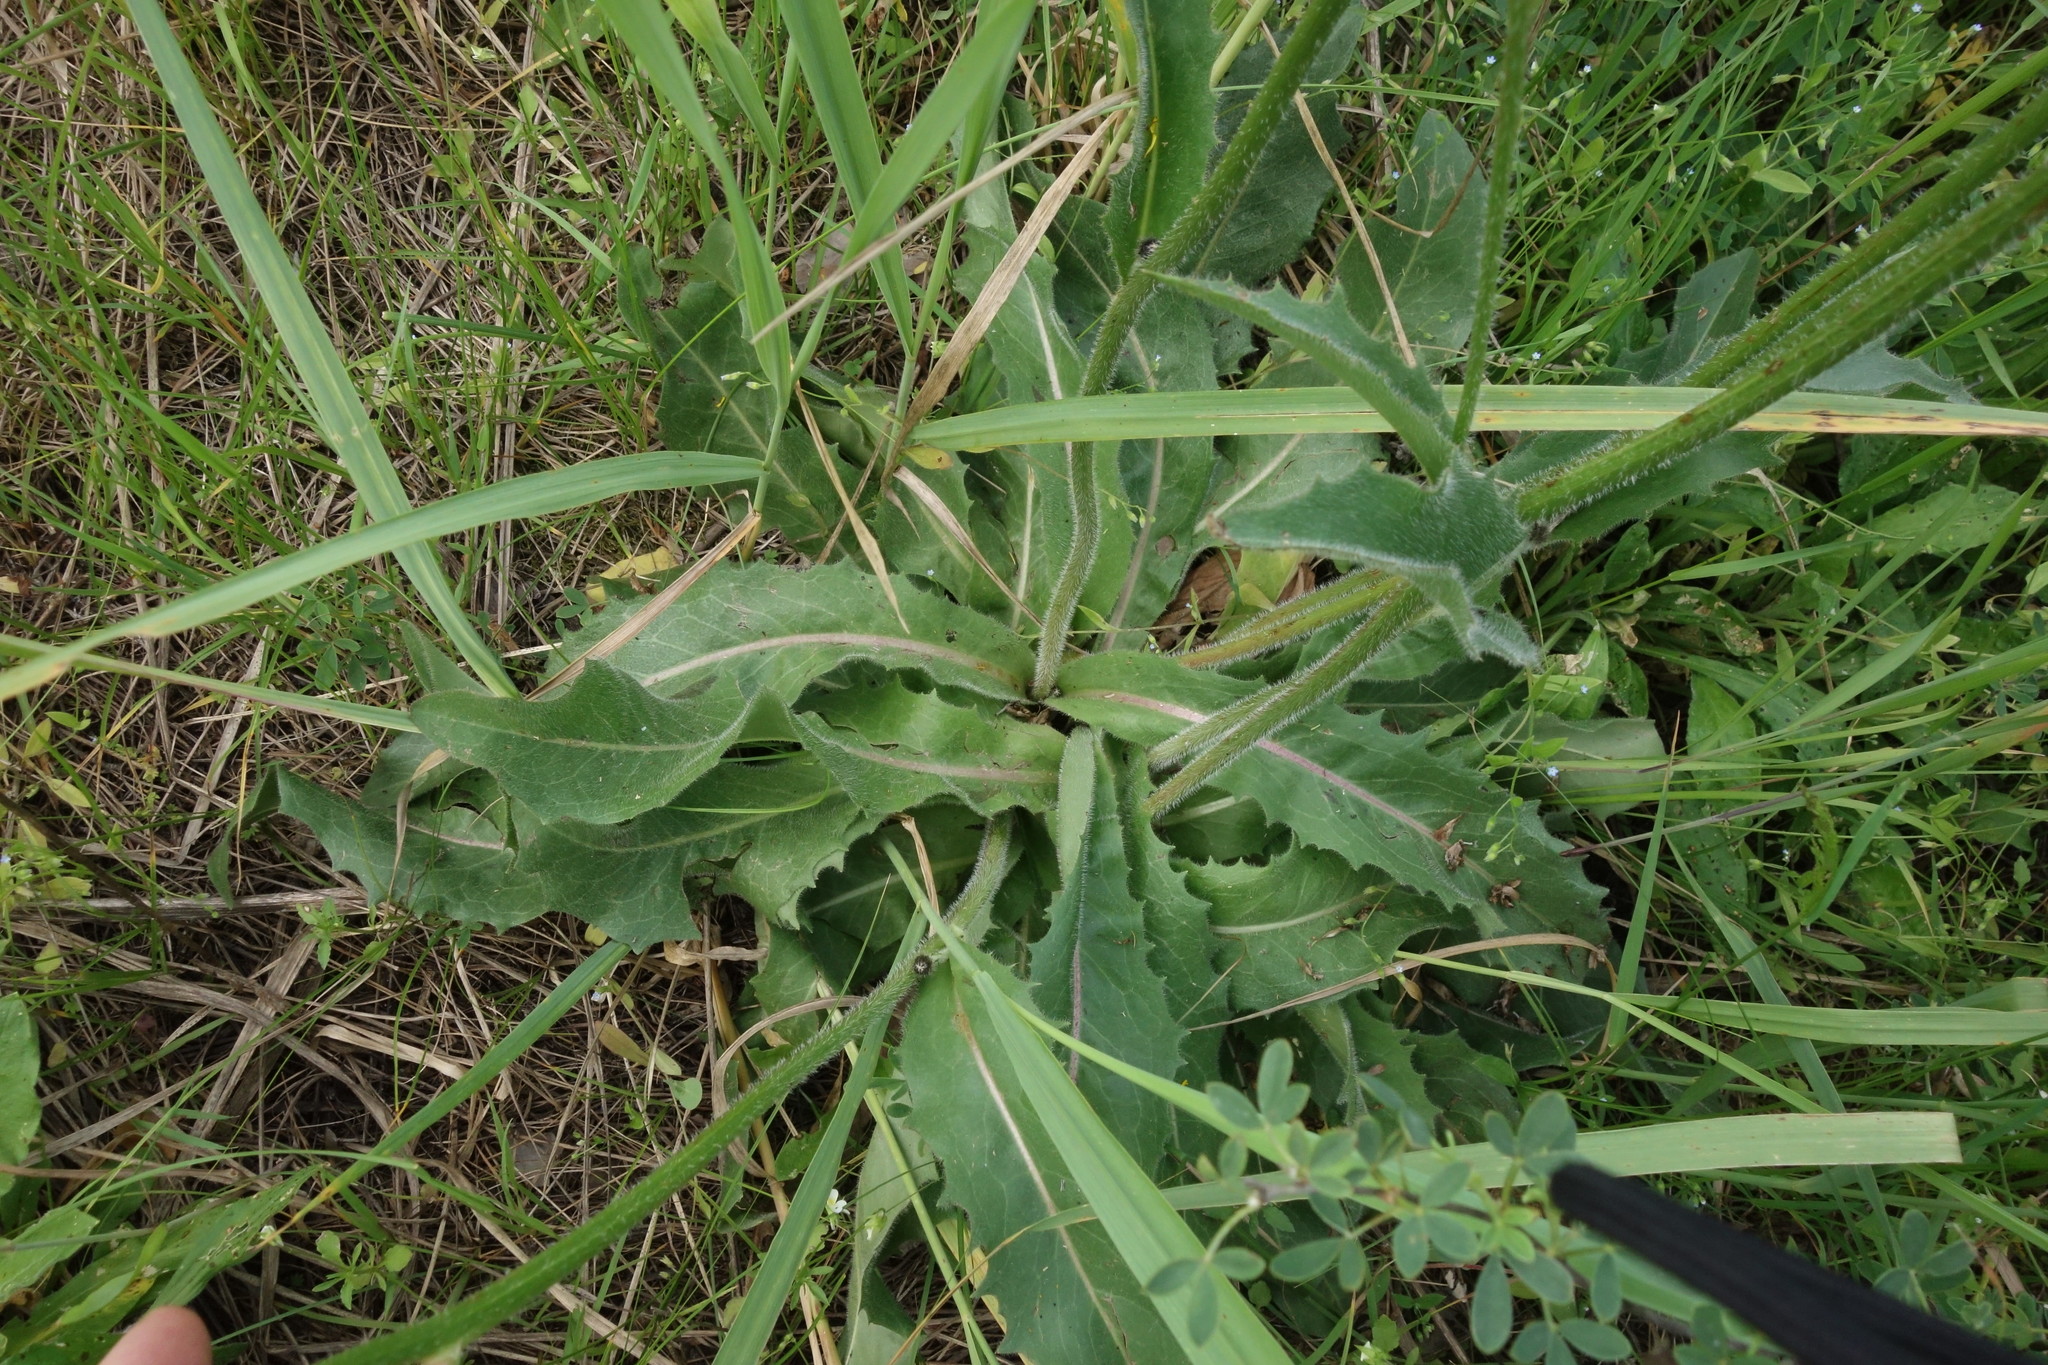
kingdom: Plantae
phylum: Tracheophyta
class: Magnoliopsida
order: Asterales
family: Asteraceae
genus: Trommsdorffia
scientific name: Trommsdorffia maculata
